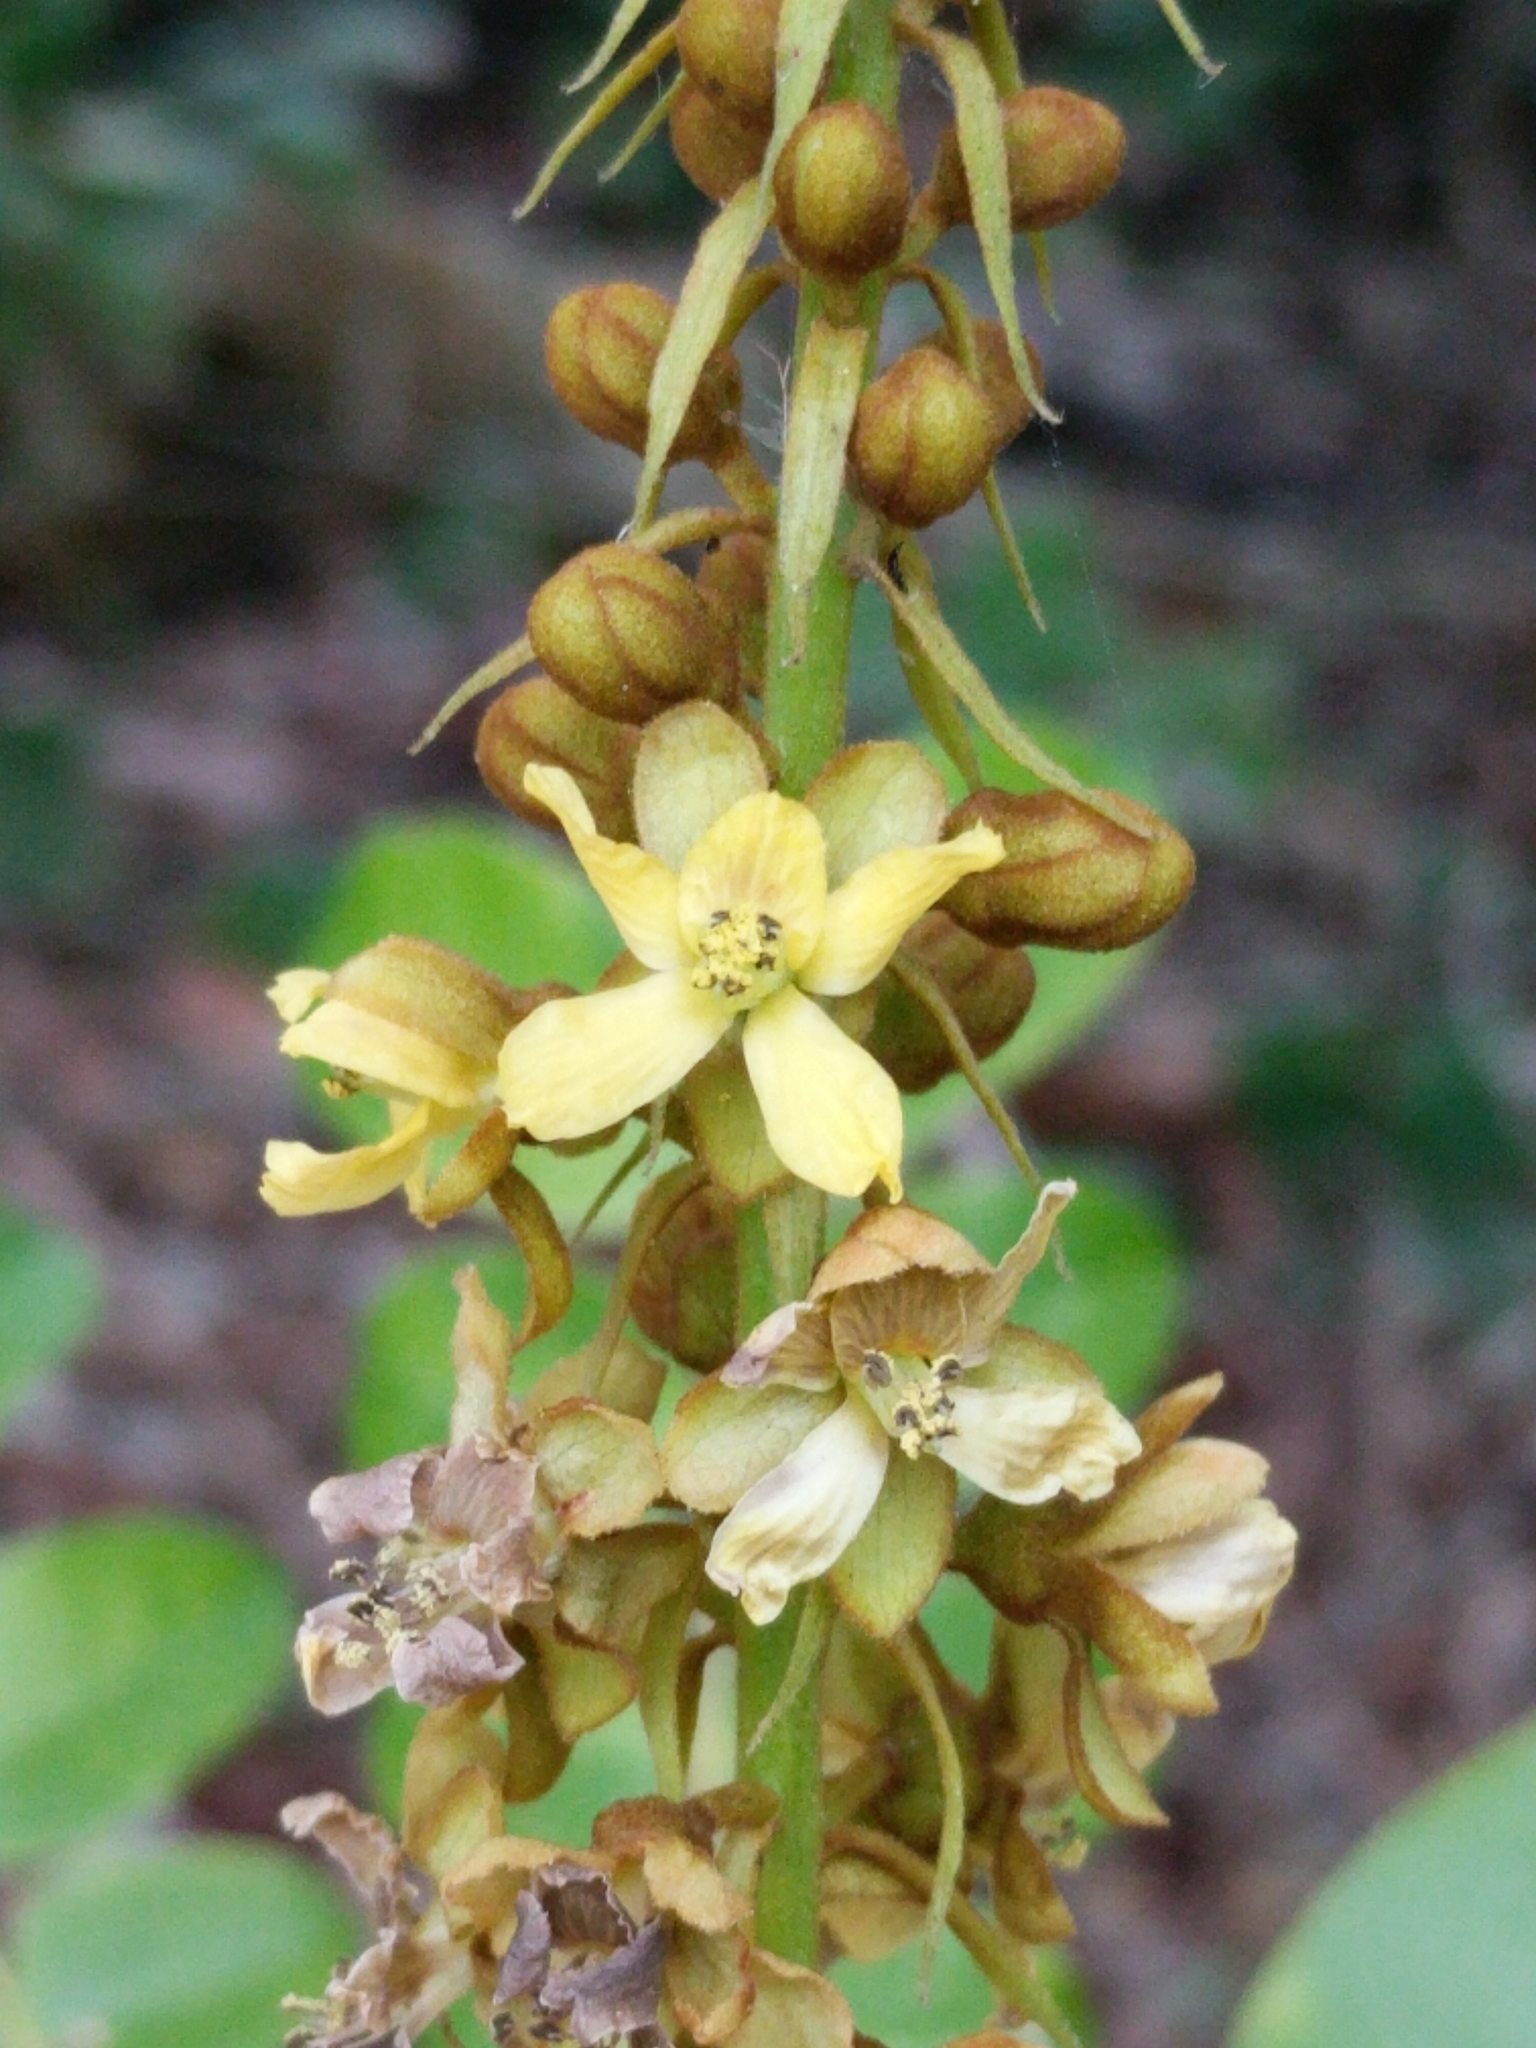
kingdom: Plantae
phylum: Tracheophyta
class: Magnoliopsida
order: Fabales
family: Fabaceae
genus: Guilandina
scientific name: Guilandina bonduc
